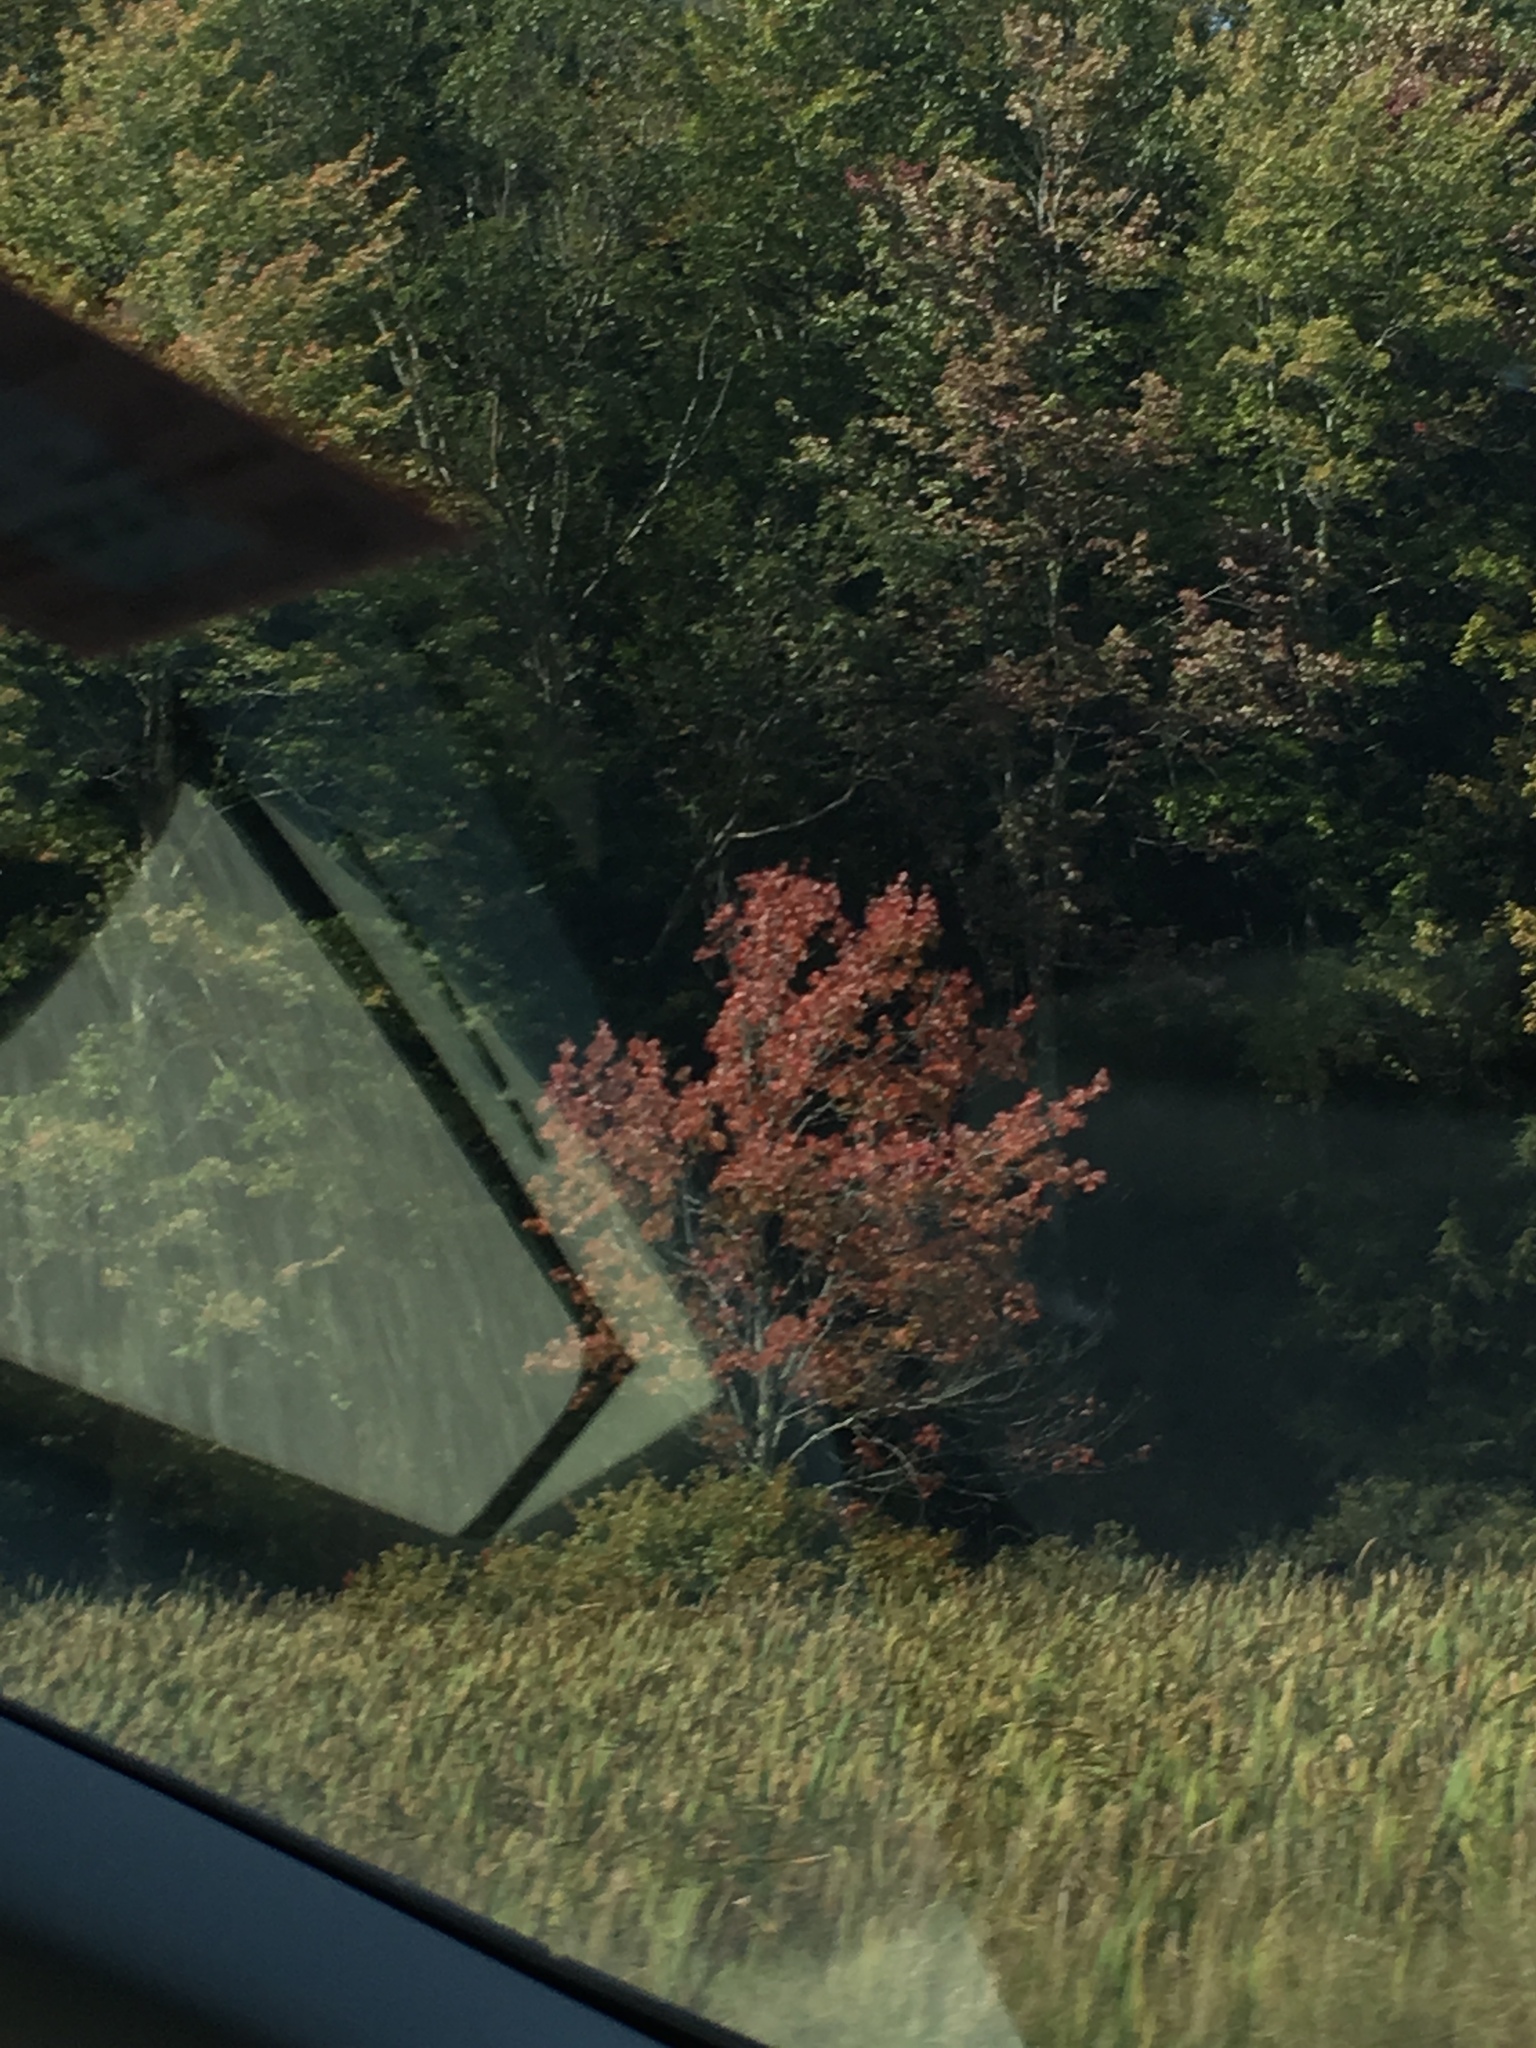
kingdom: Plantae
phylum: Tracheophyta
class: Magnoliopsida
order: Sapindales
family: Sapindaceae
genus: Acer
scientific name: Acer rubrum
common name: Red maple
